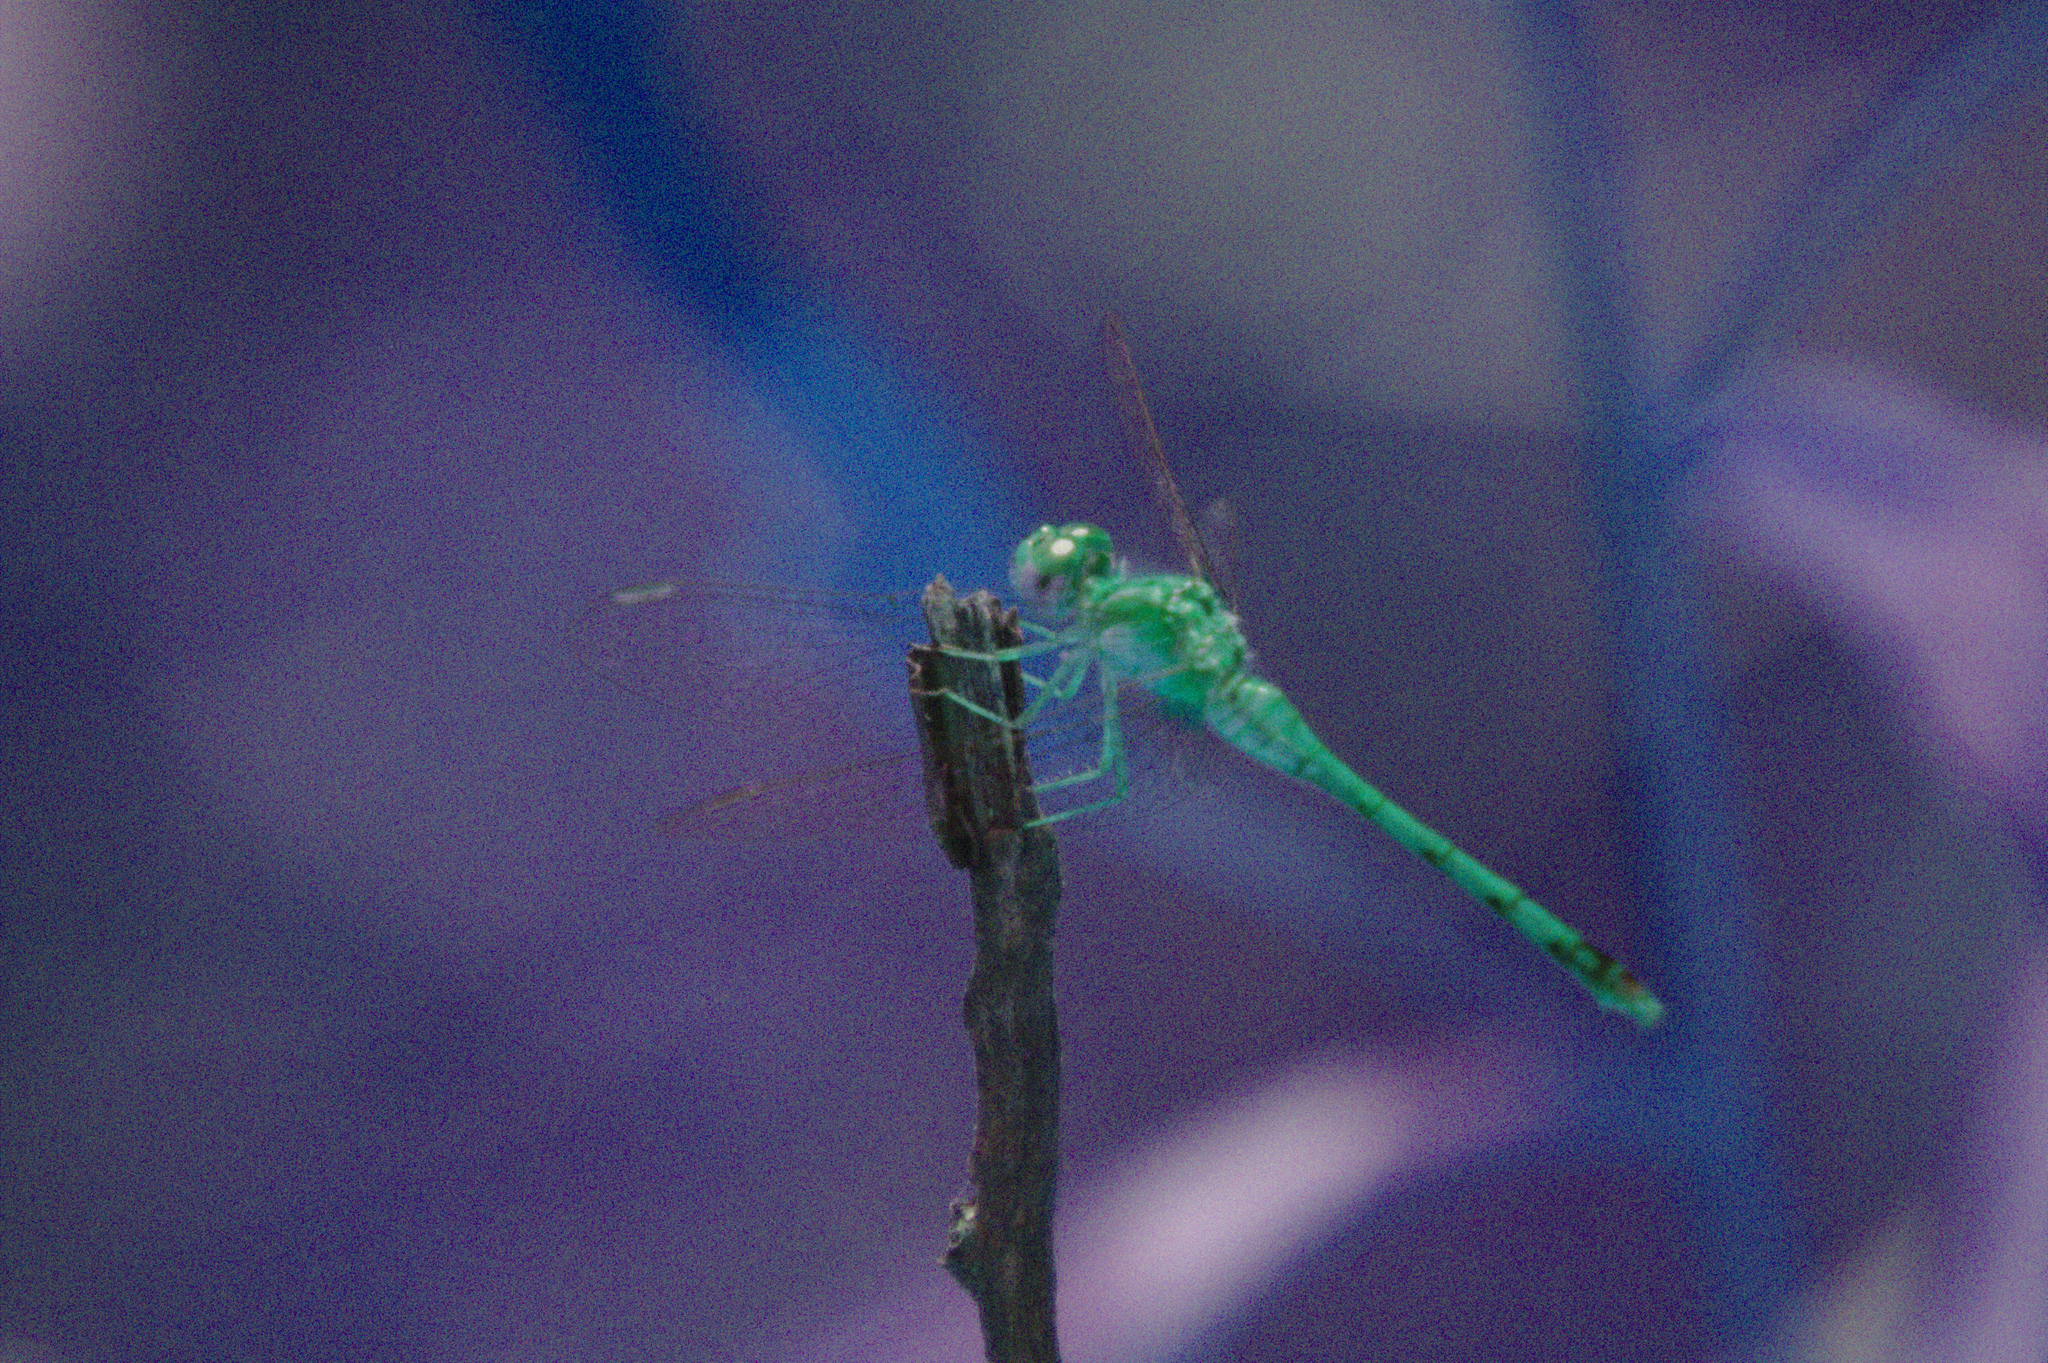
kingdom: Animalia
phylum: Arthropoda
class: Insecta
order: Odonata
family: Libellulidae
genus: Sympetrum
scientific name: Sympetrum vicinum
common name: Autumn meadowhawk
